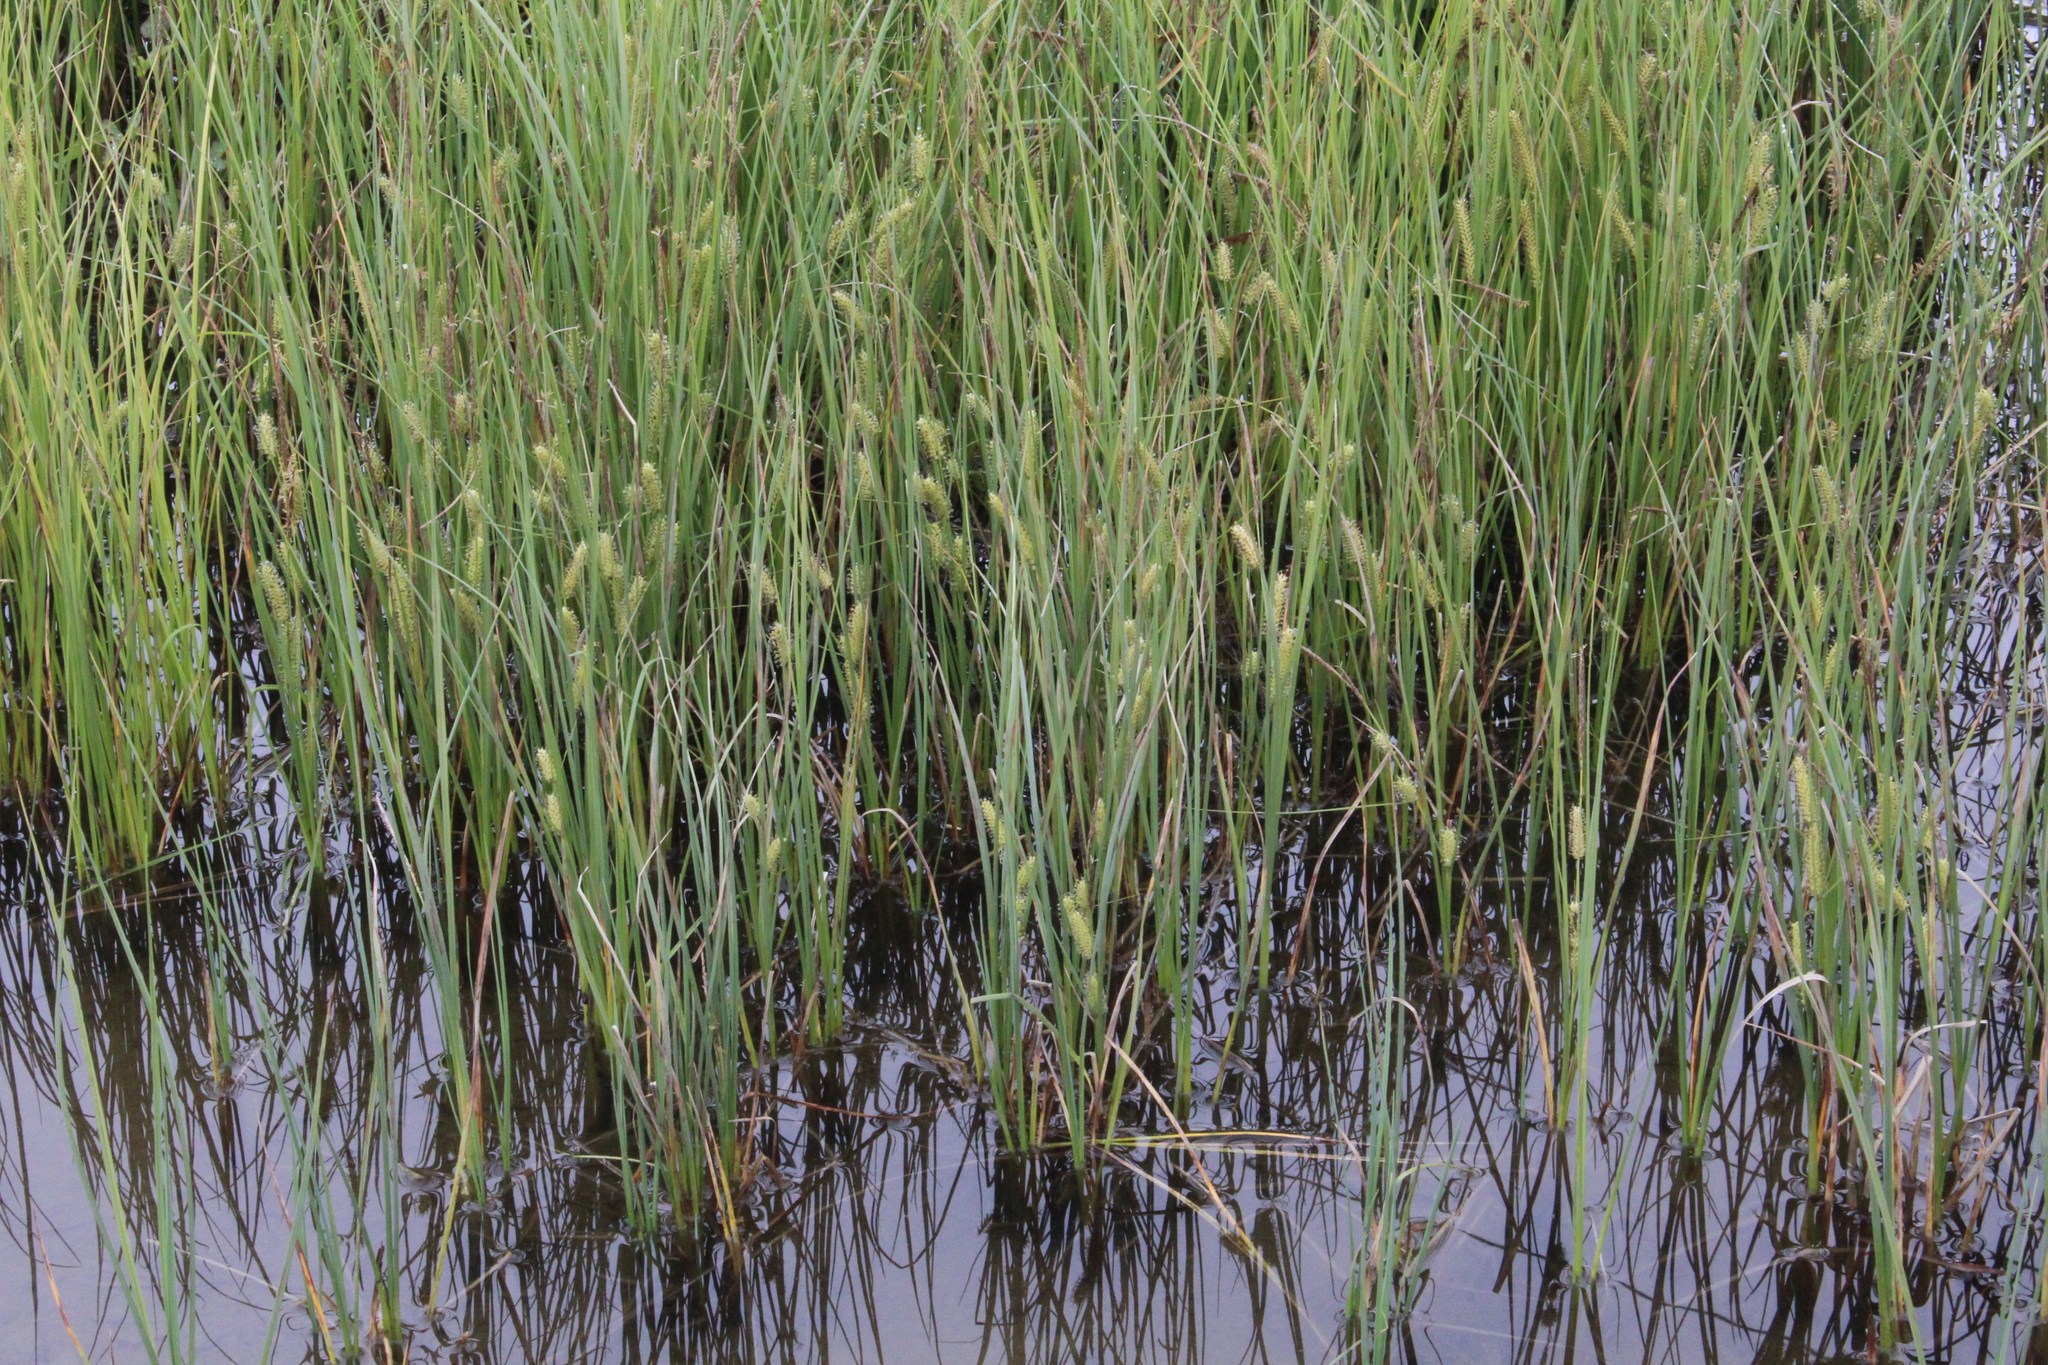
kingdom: Plantae
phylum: Tracheophyta
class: Liliopsida
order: Poales
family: Cyperaceae
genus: Carex
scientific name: Carex rostrata
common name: Bottle sedge
